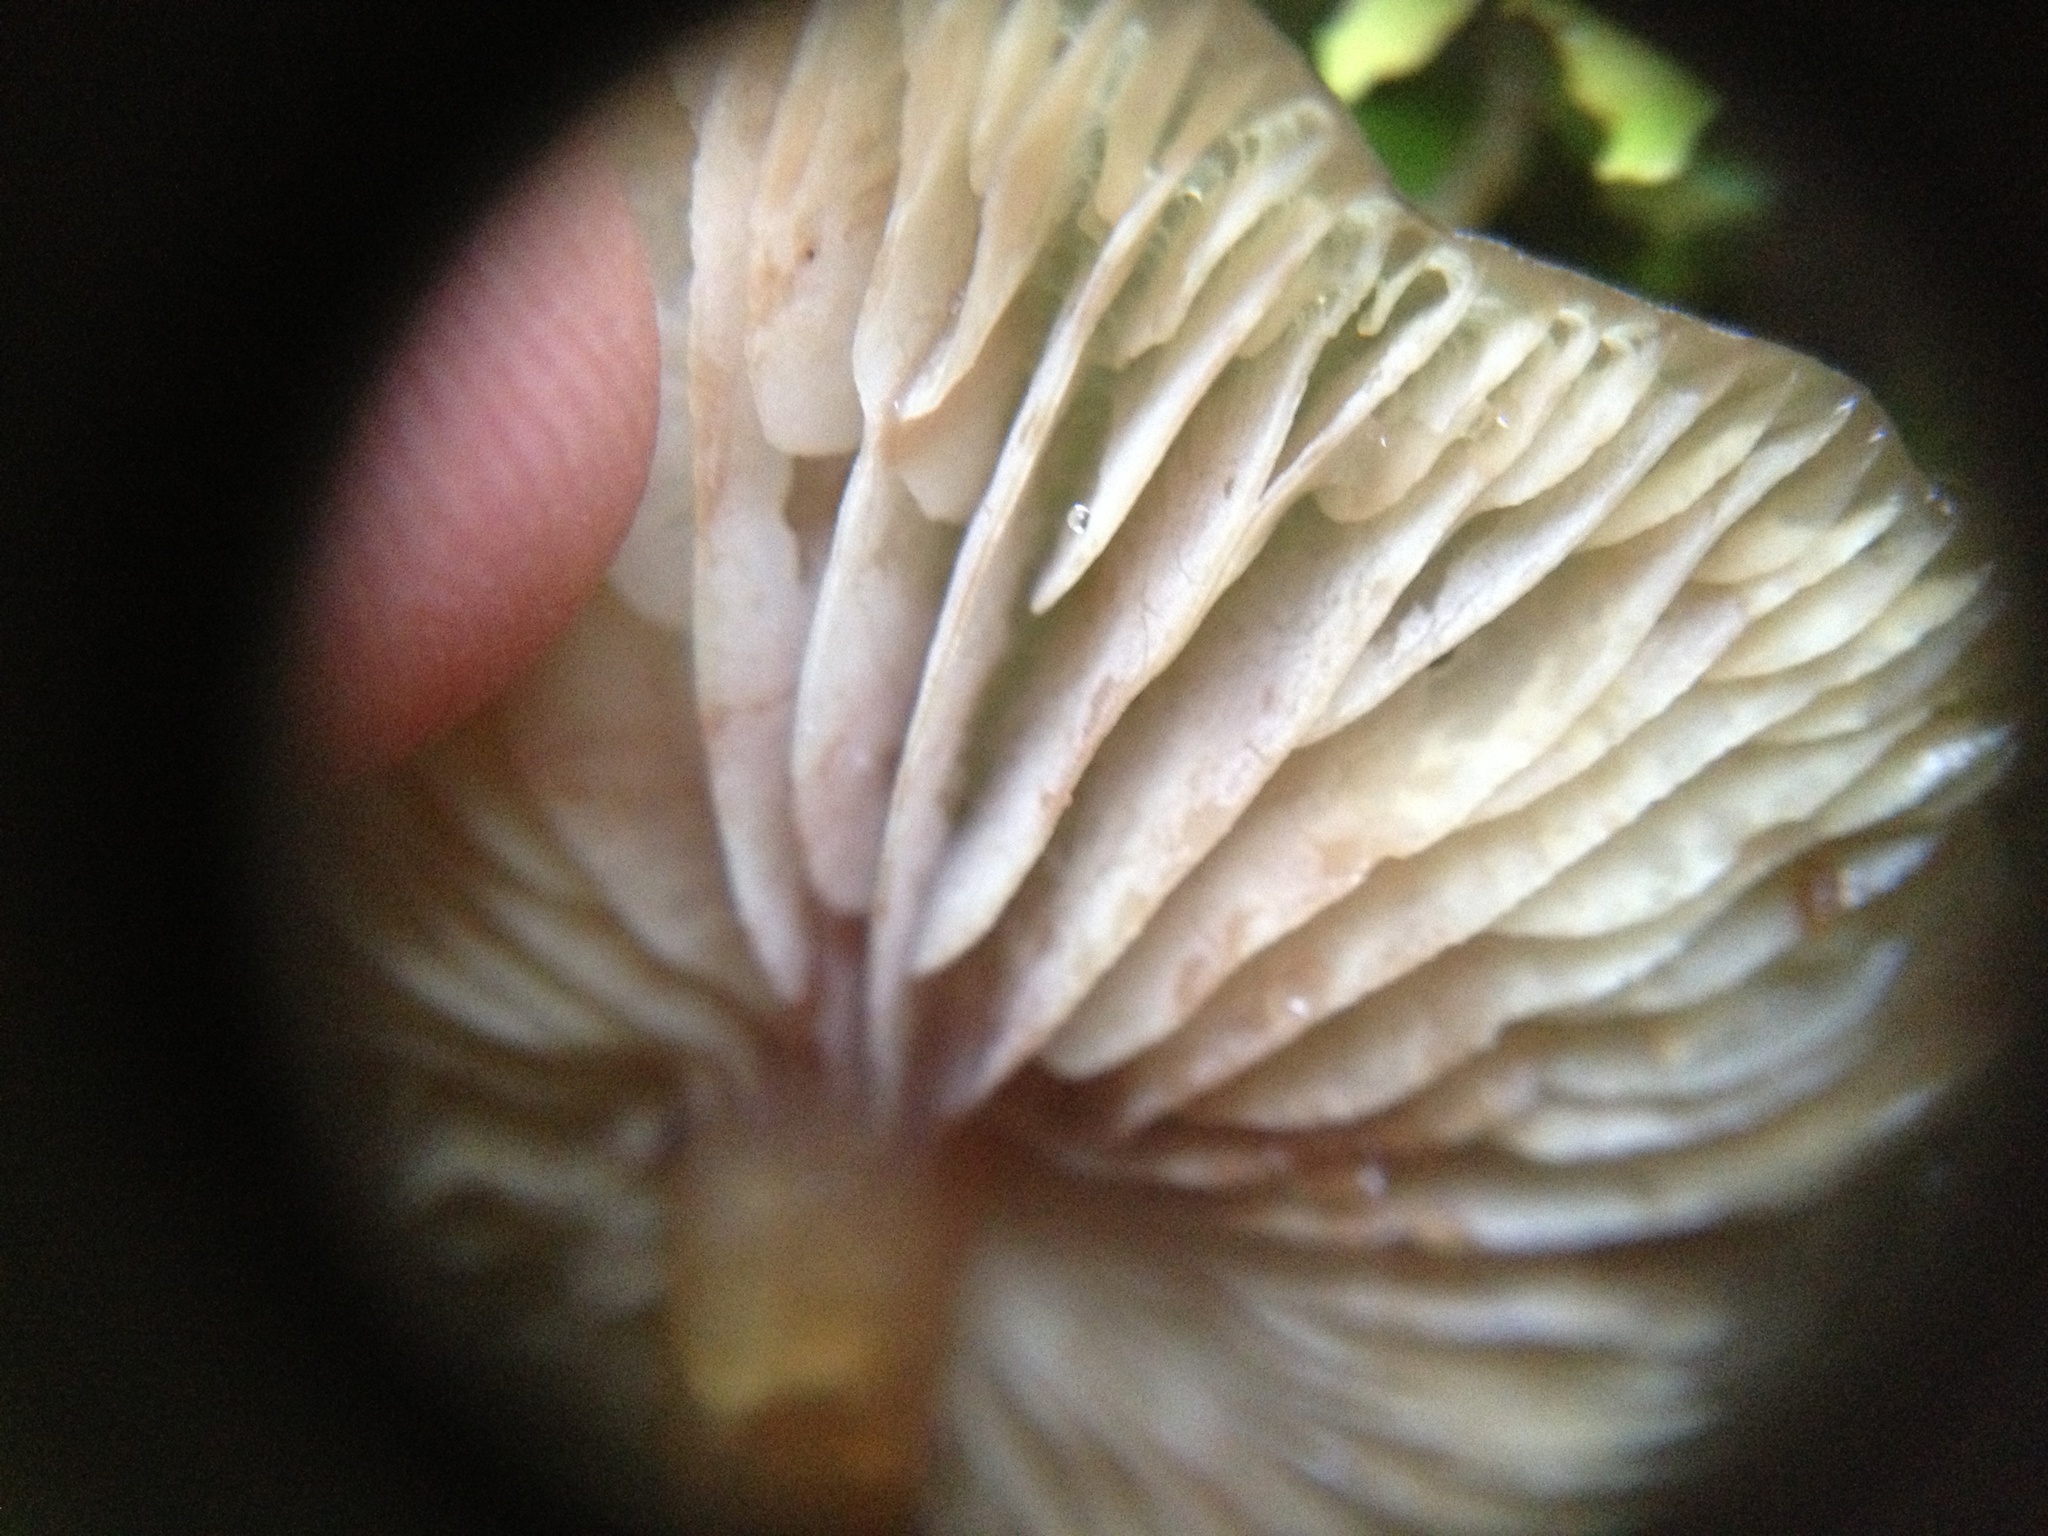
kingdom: Fungi
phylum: Basidiomycota
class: Agaricomycetes
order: Agaricales
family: Physalacriaceae
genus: Armillaria
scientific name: Armillaria novae-zelandiae
